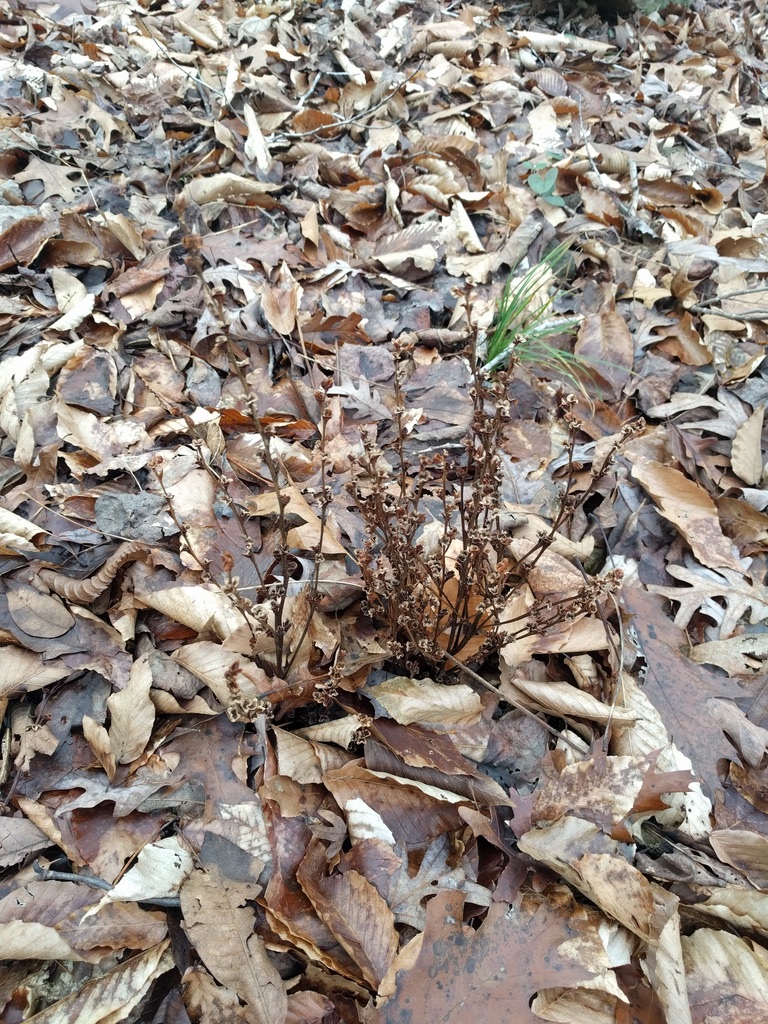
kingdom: Plantae
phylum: Tracheophyta
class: Magnoliopsida
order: Lamiales
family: Orobanchaceae
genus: Epifagus
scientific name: Epifagus virginiana
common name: Beechdrops
